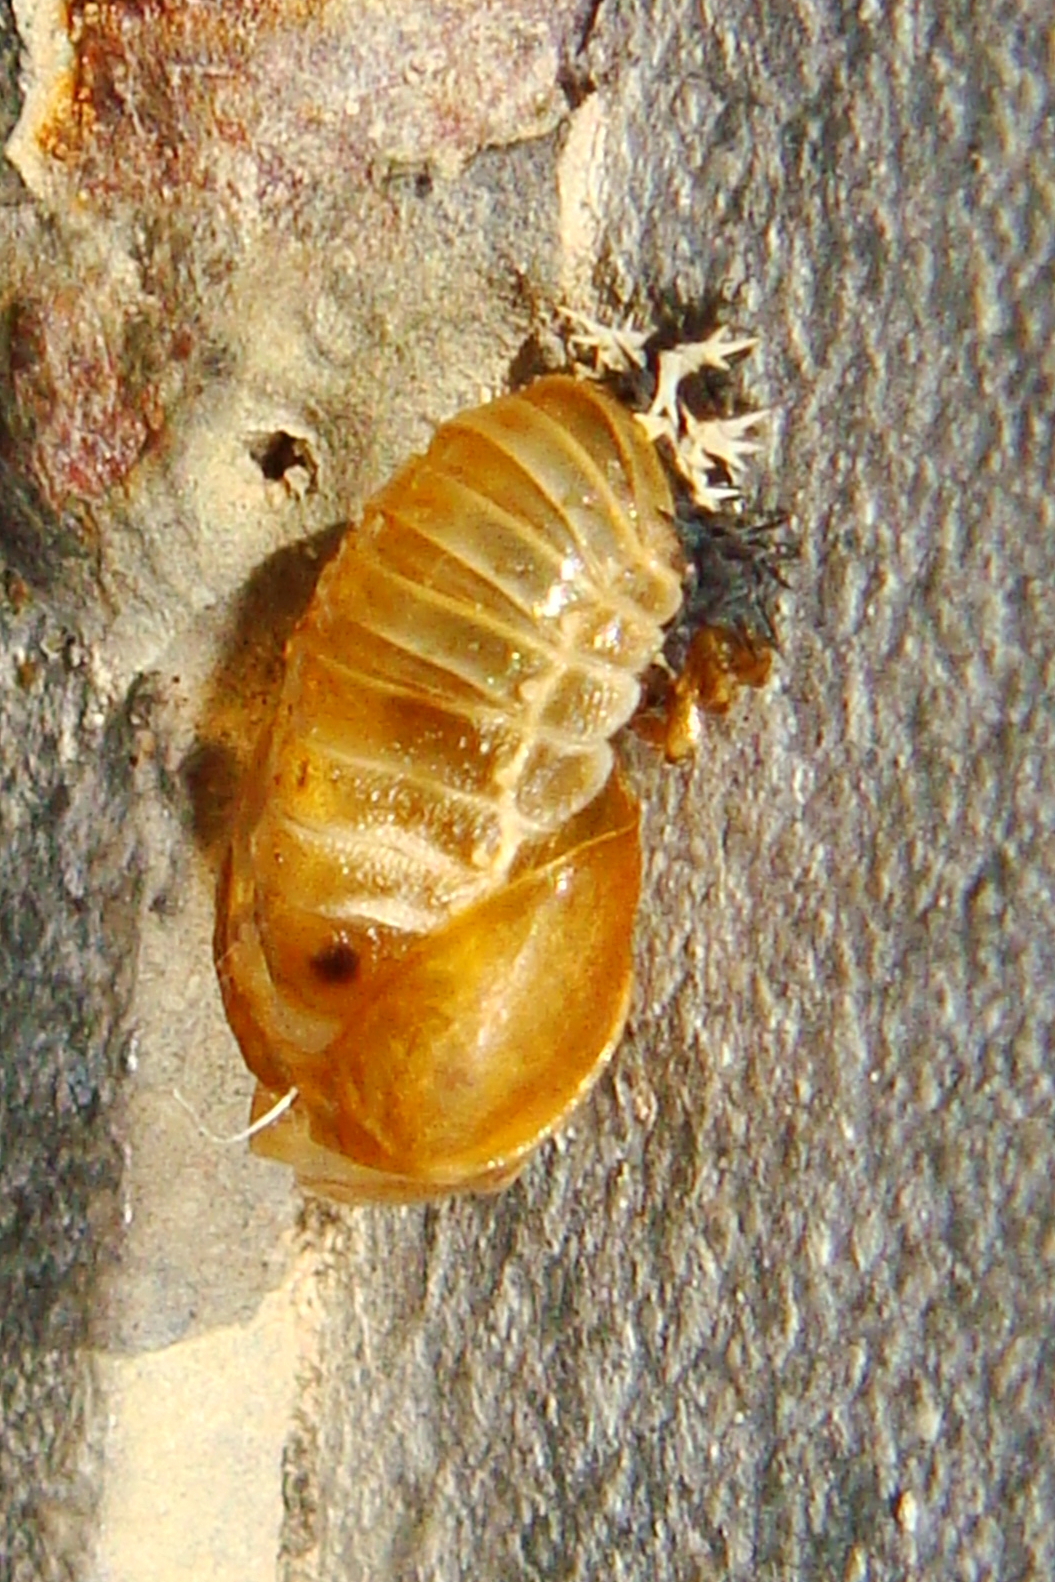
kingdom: Animalia
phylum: Arthropoda
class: Insecta
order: Coleoptera
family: Coccinellidae
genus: Harmonia
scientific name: Harmonia axyridis
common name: Harlequin ladybird
